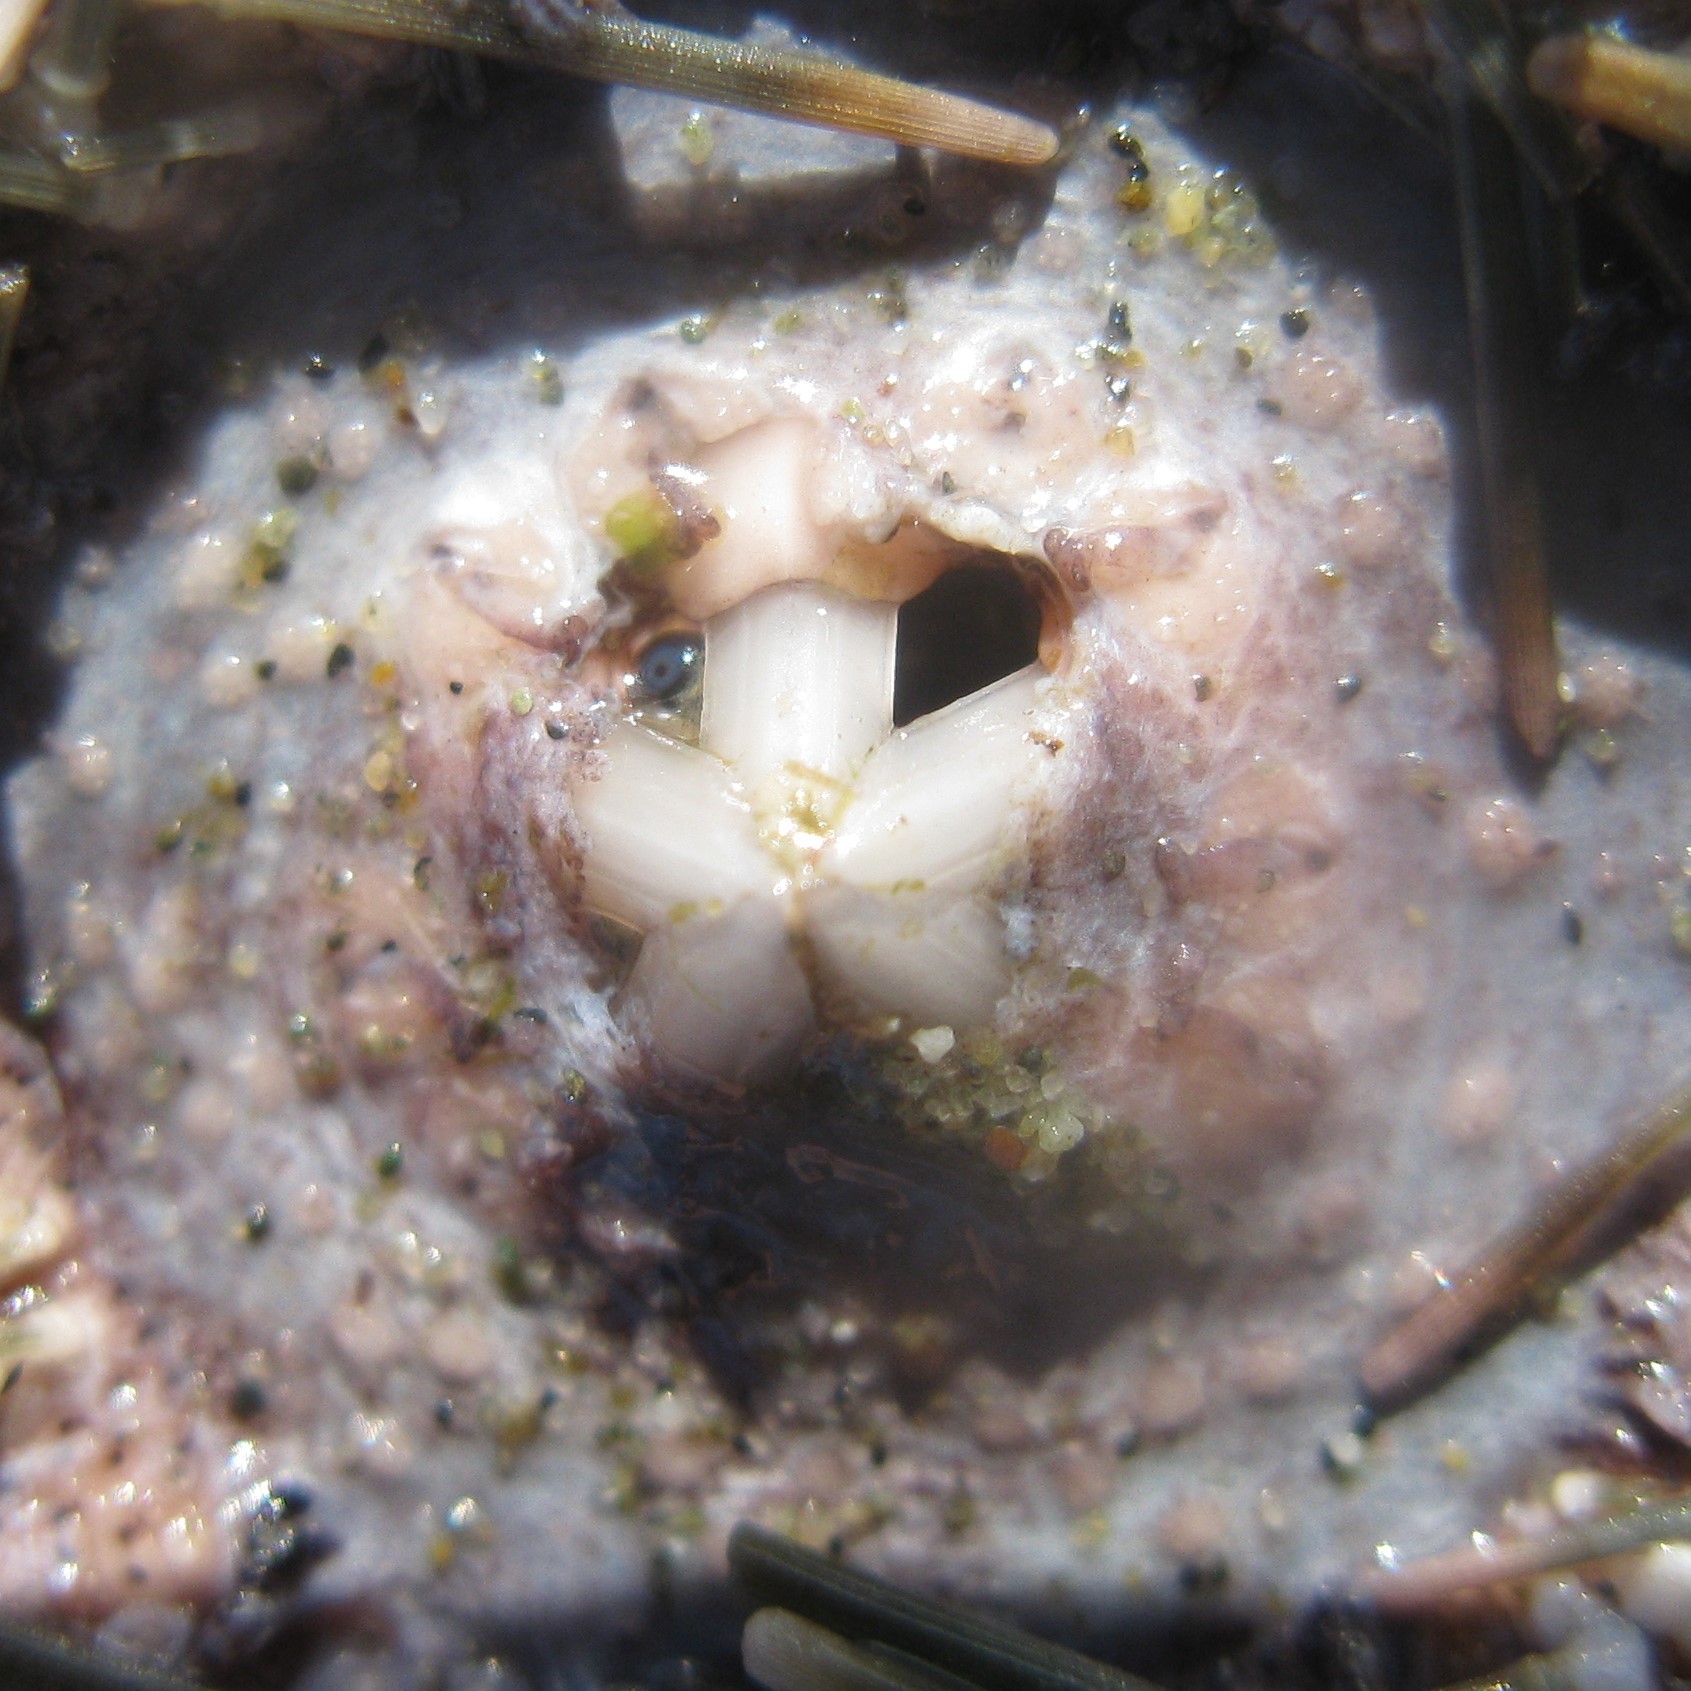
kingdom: Animalia
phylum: Echinodermata
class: Echinoidea
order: Camarodonta
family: Echinometridae
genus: Evechinus
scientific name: Evechinus chloroticus
